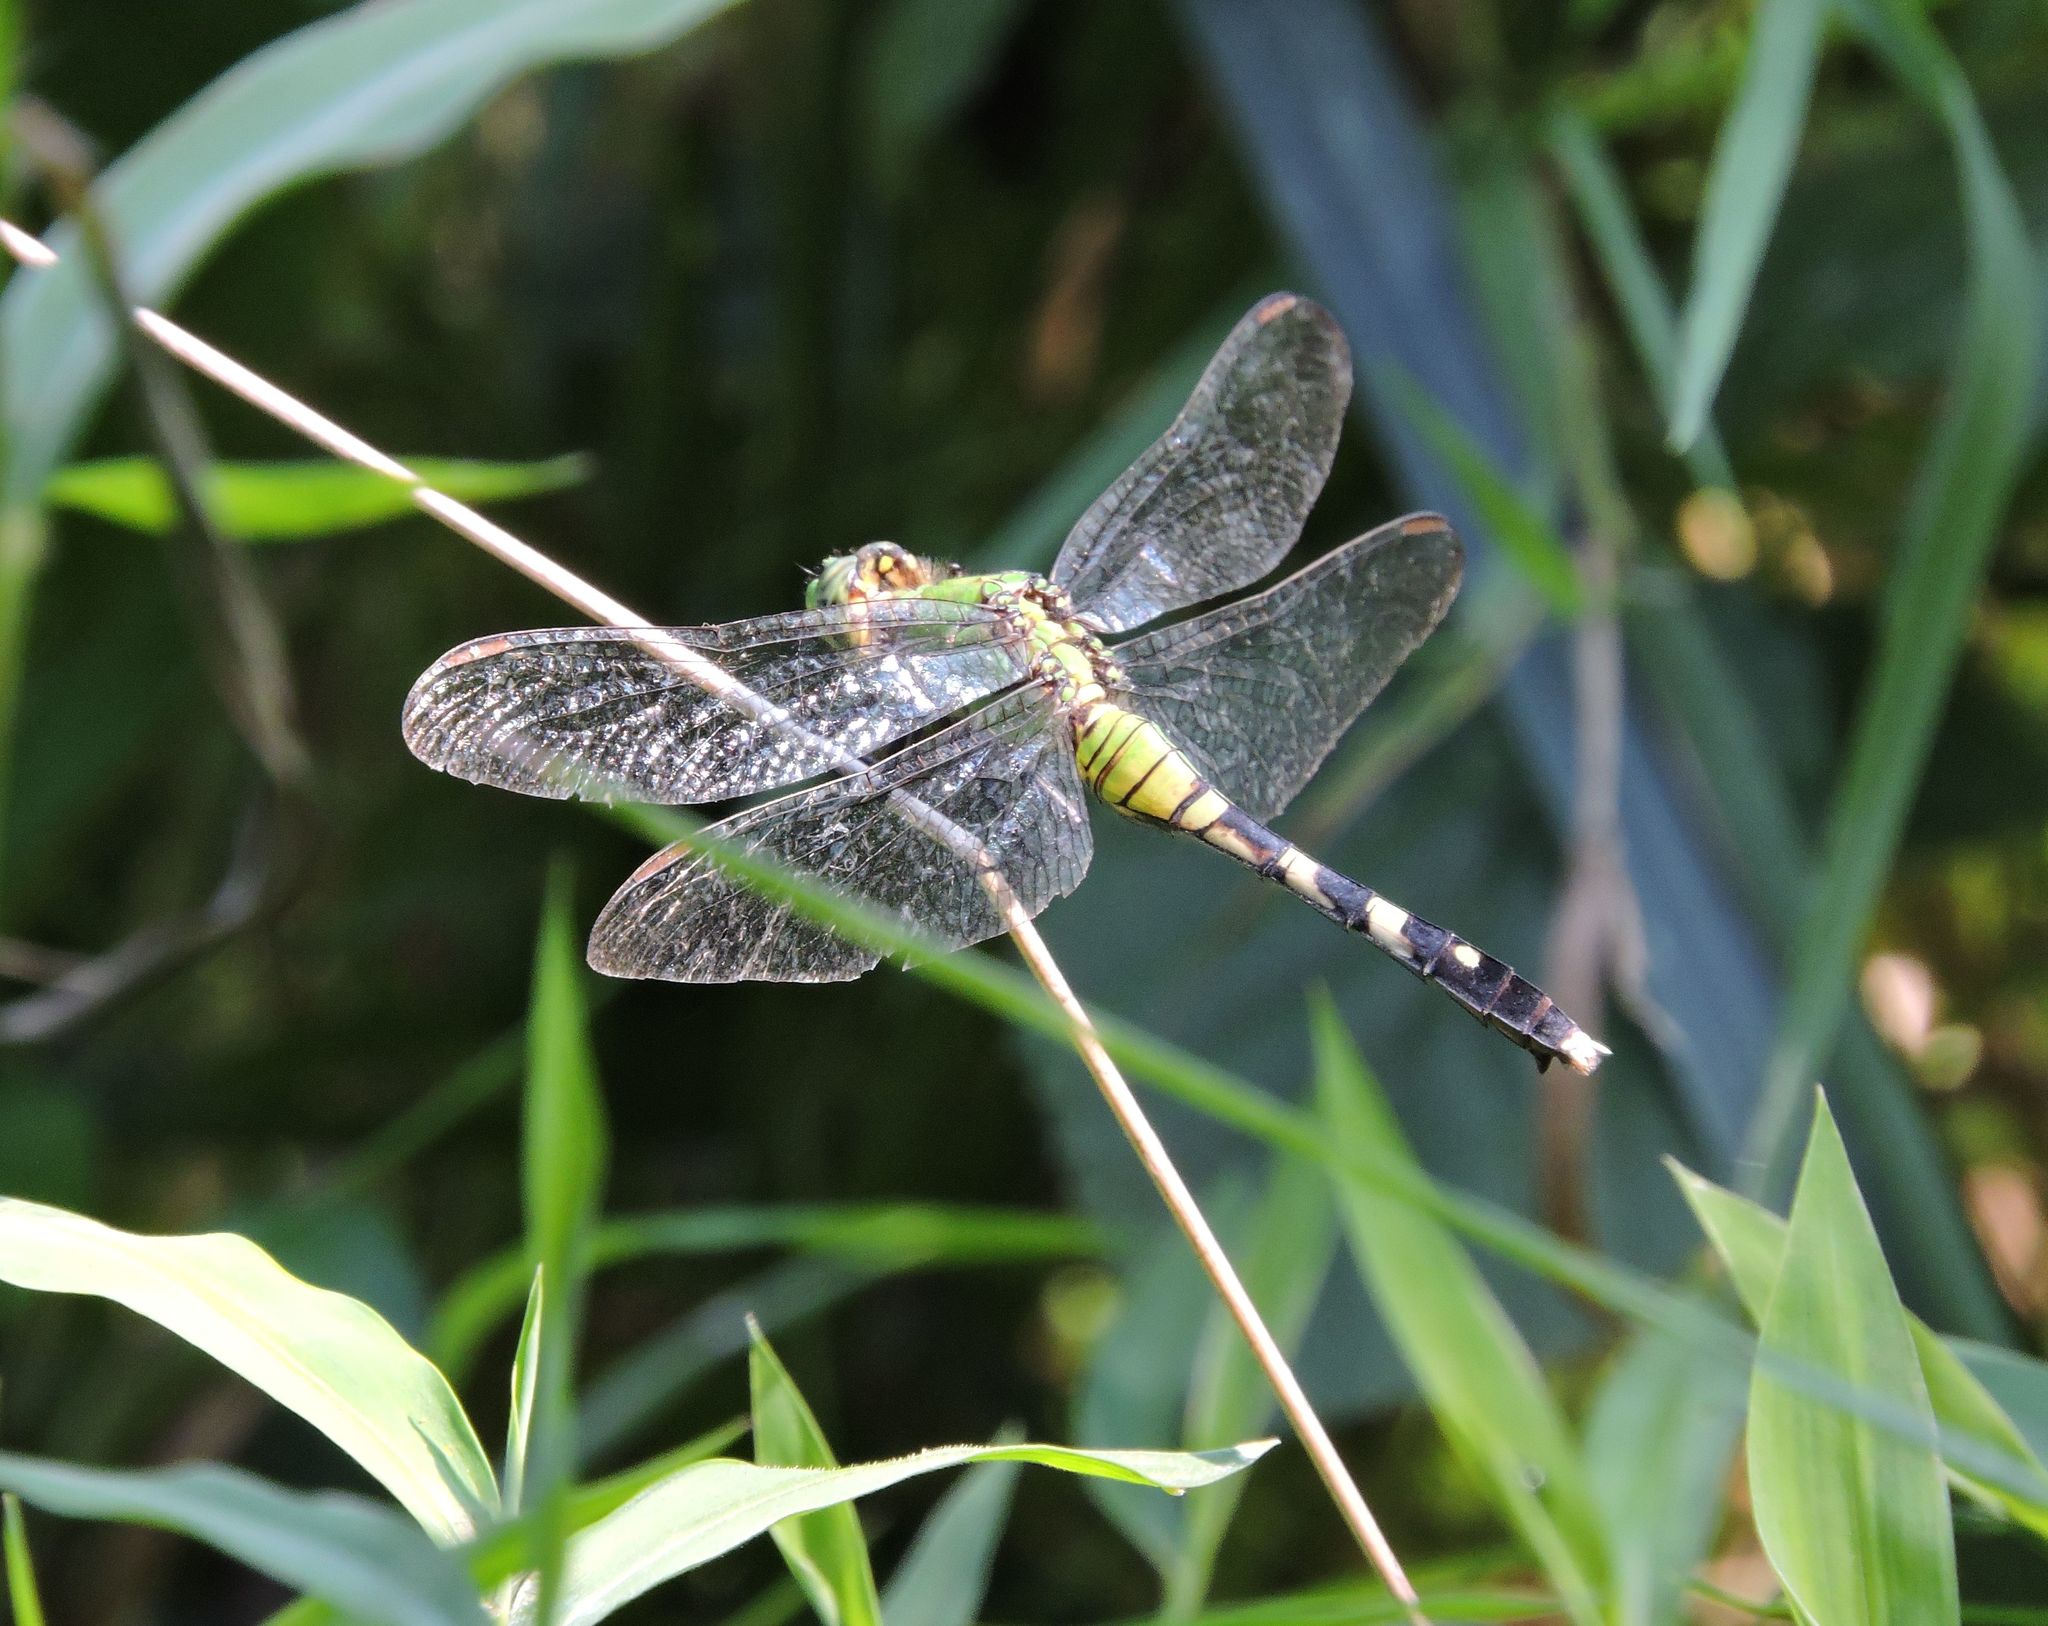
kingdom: Animalia
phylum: Arthropoda
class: Insecta
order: Odonata
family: Libellulidae
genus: Erythemis
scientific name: Erythemis simplicicollis
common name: Eastern pondhawk
